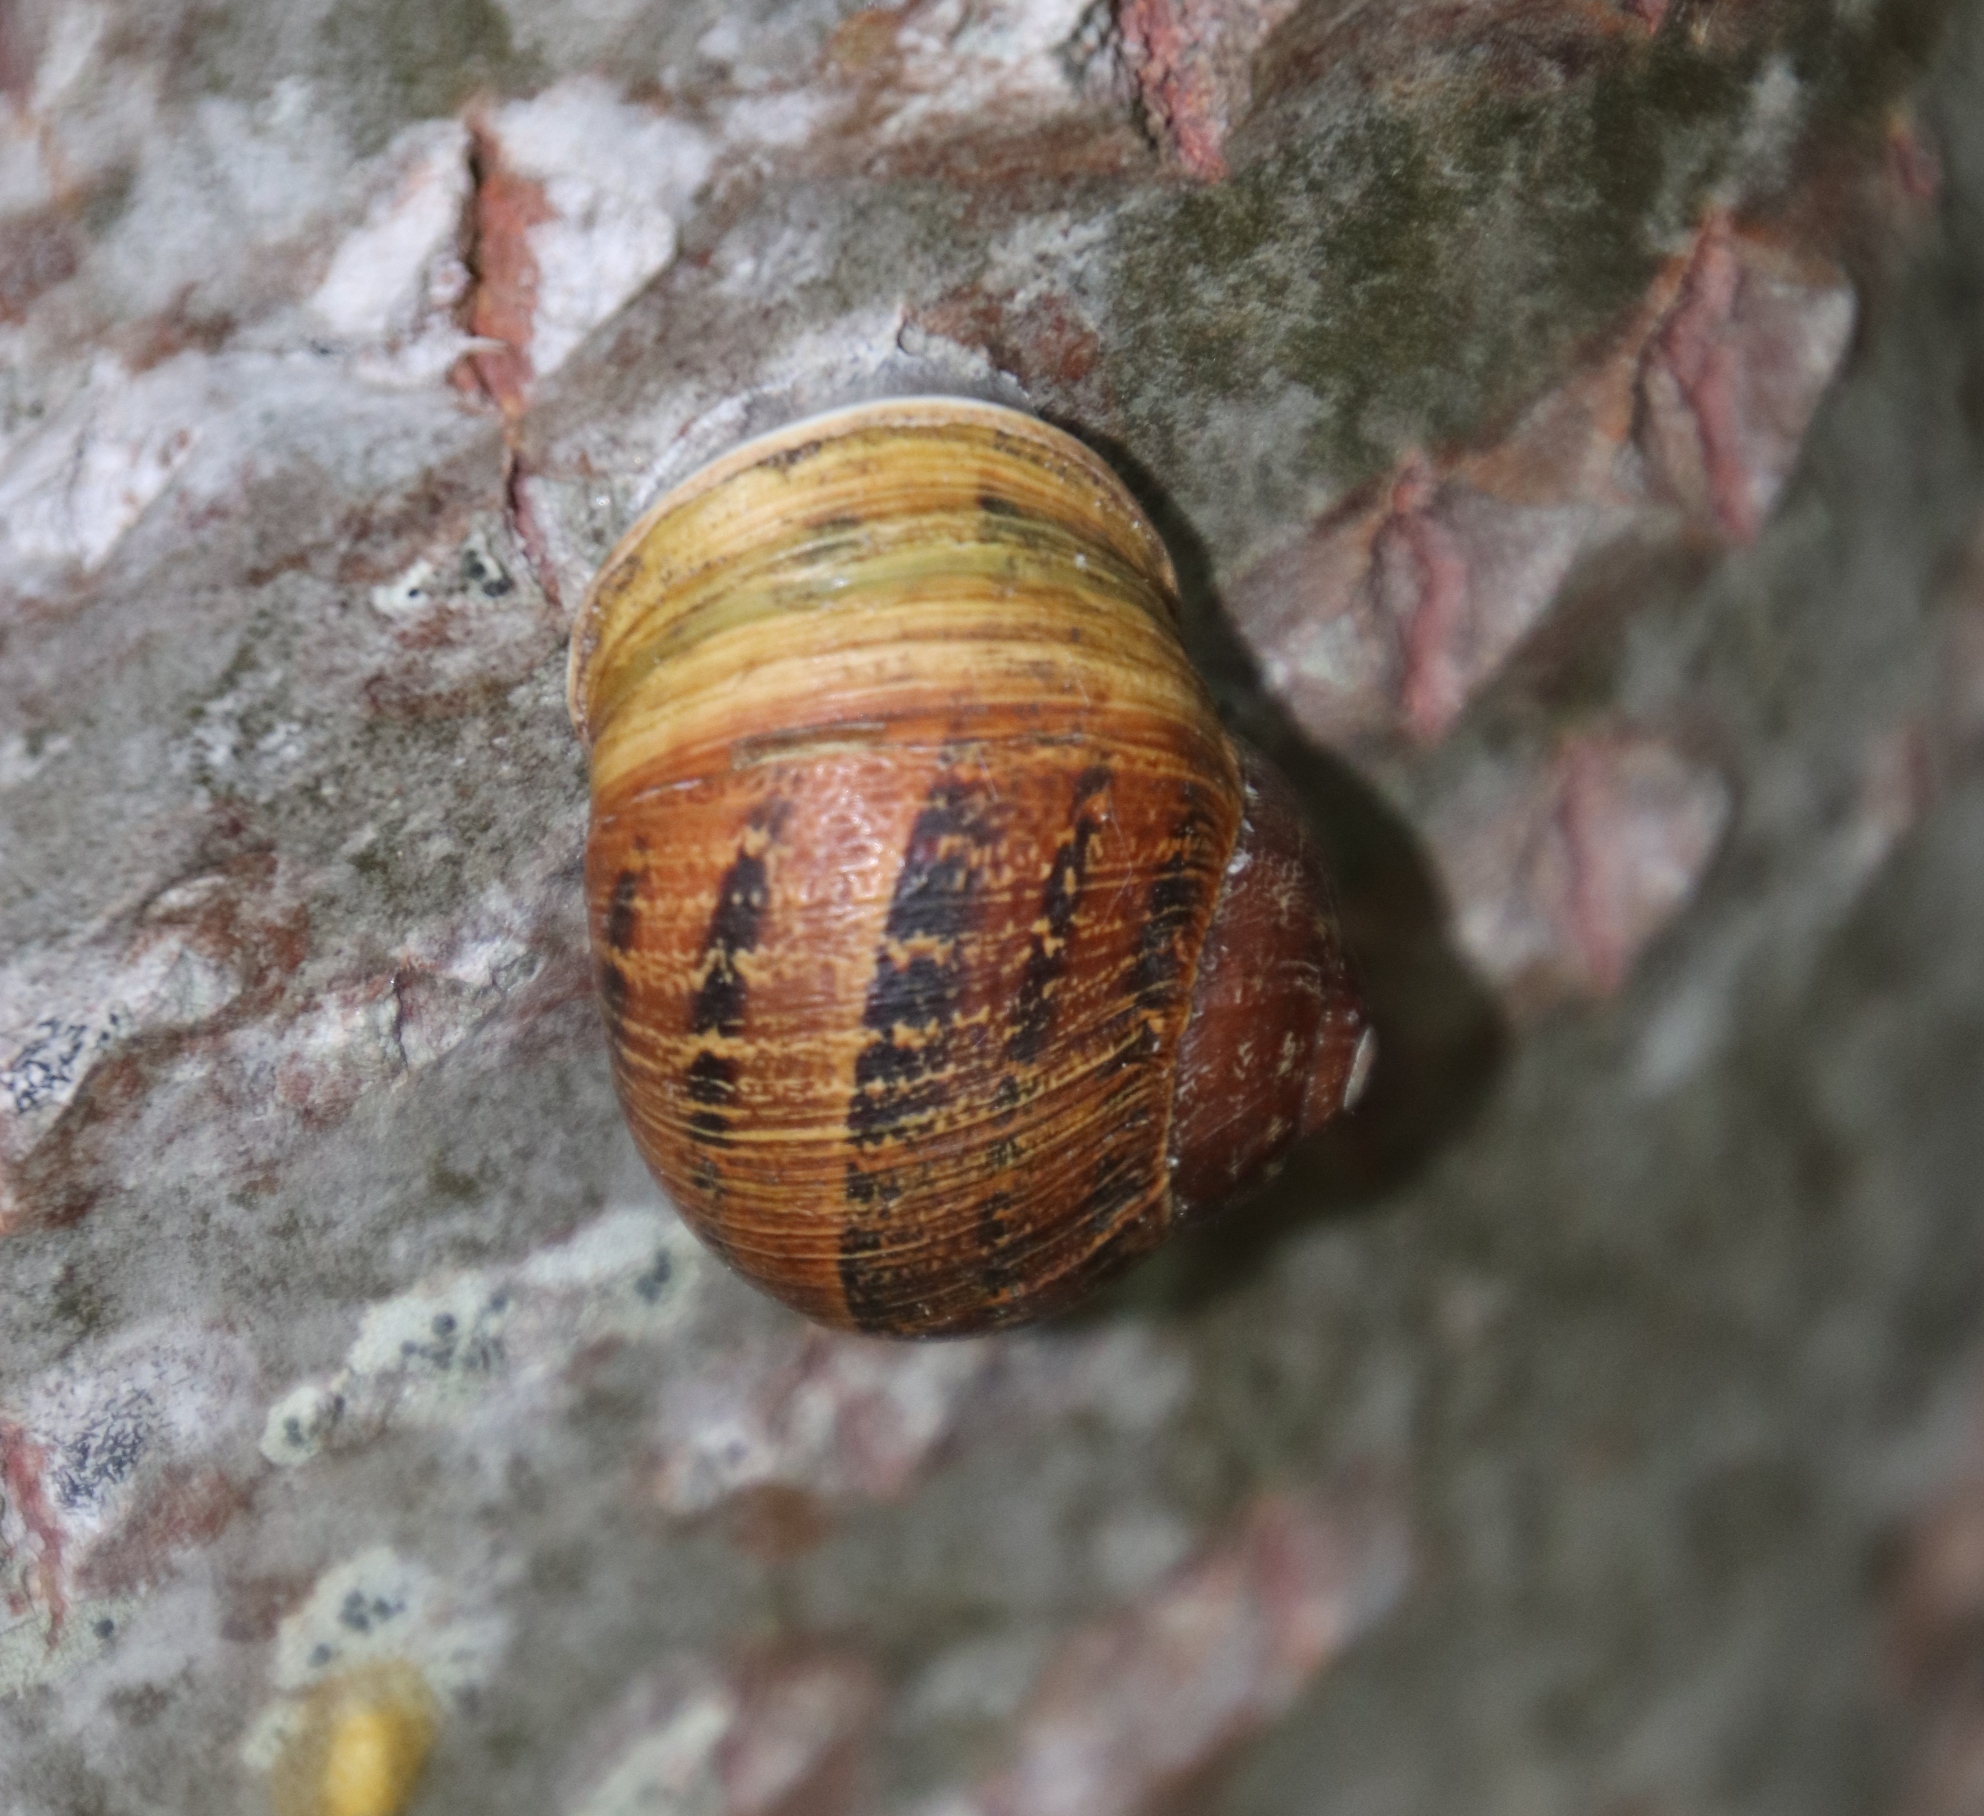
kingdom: Animalia
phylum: Mollusca
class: Gastropoda
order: Stylommatophora
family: Helicidae
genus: Cornu
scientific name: Cornu aspersum
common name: Brown garden snail
